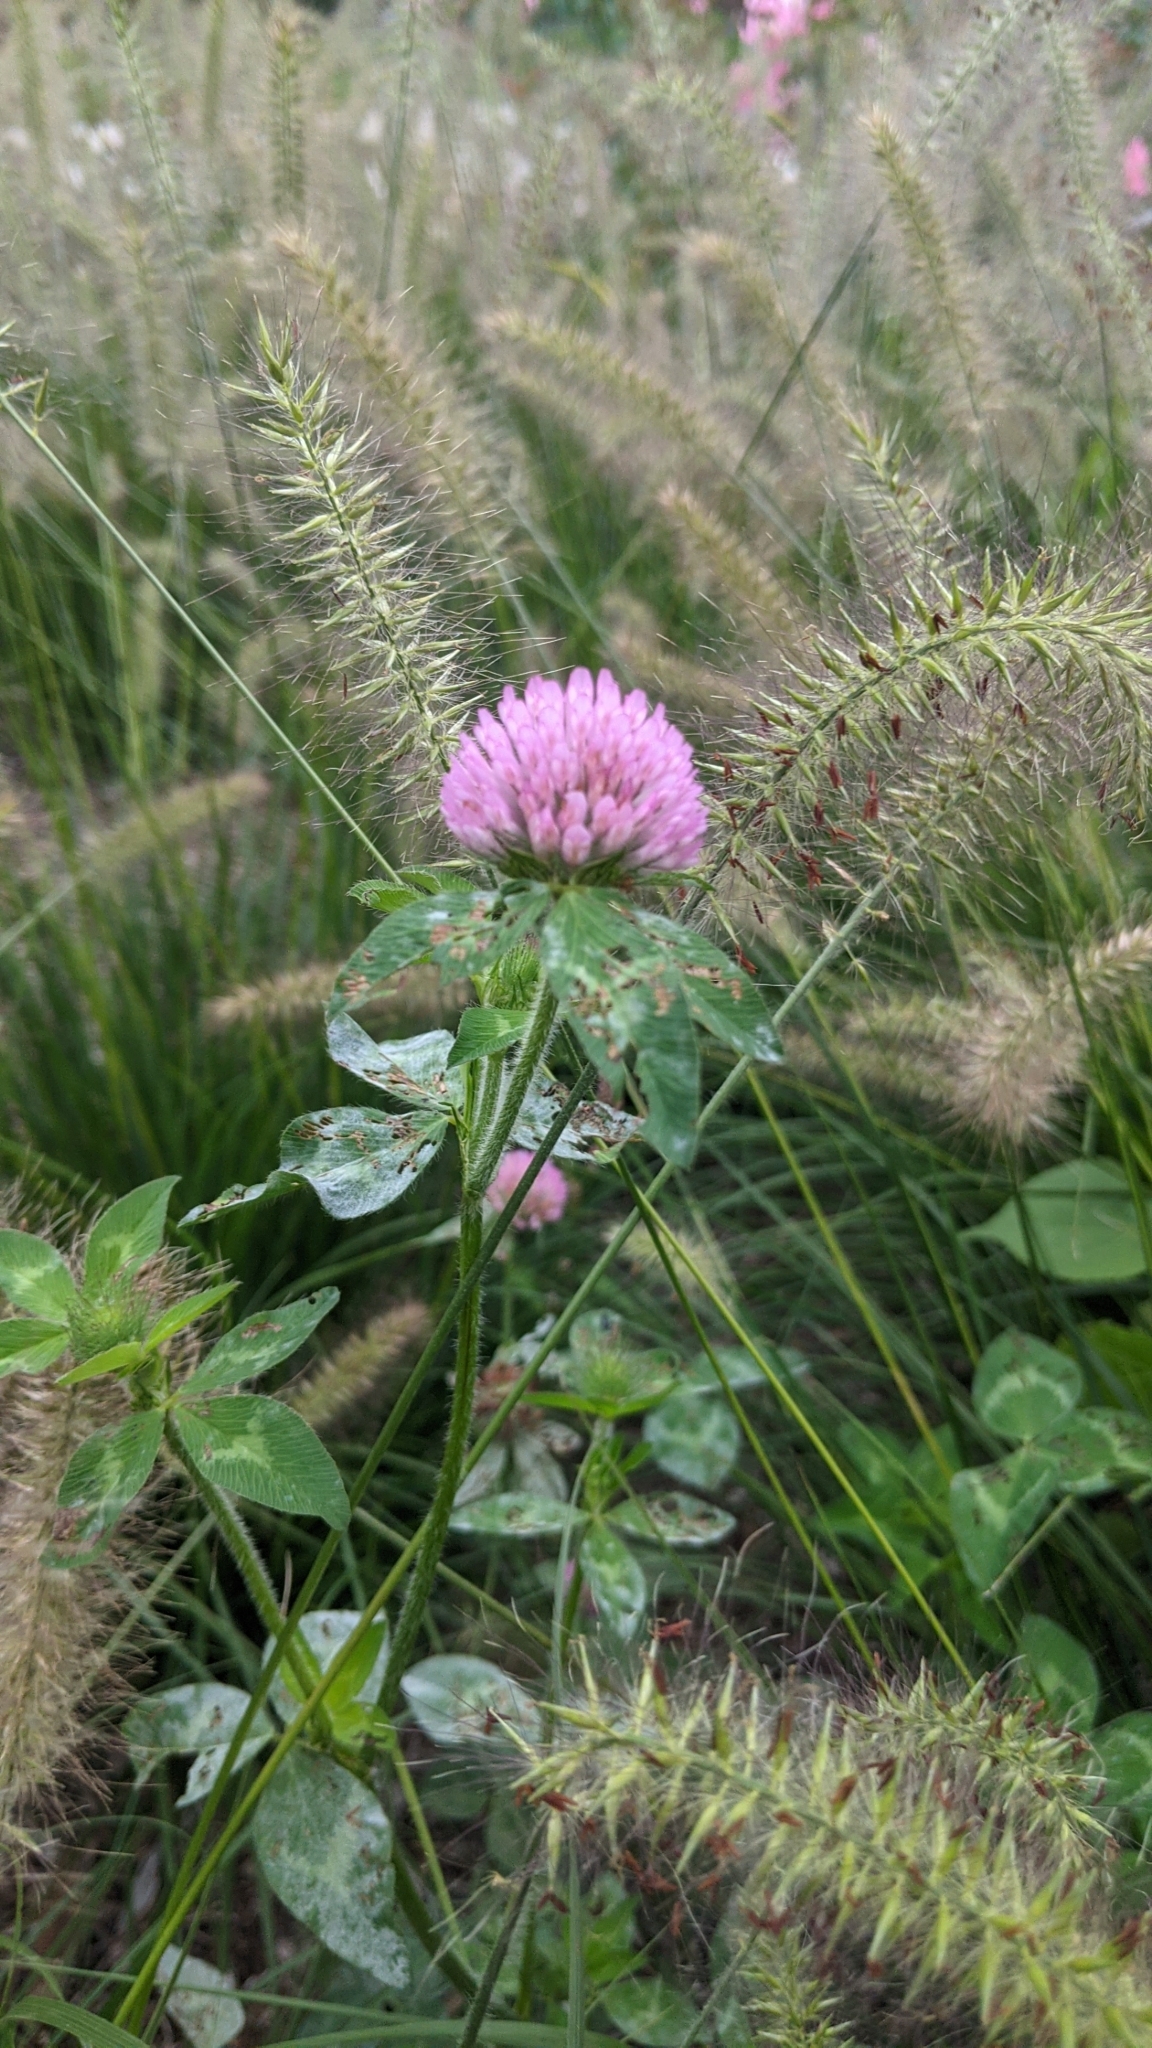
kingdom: Plantae
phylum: Tracheophyta
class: Magnoliopsida
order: Fabales
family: Fabaceae
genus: Trifolium
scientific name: Trifolium pratense
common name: Red clover
